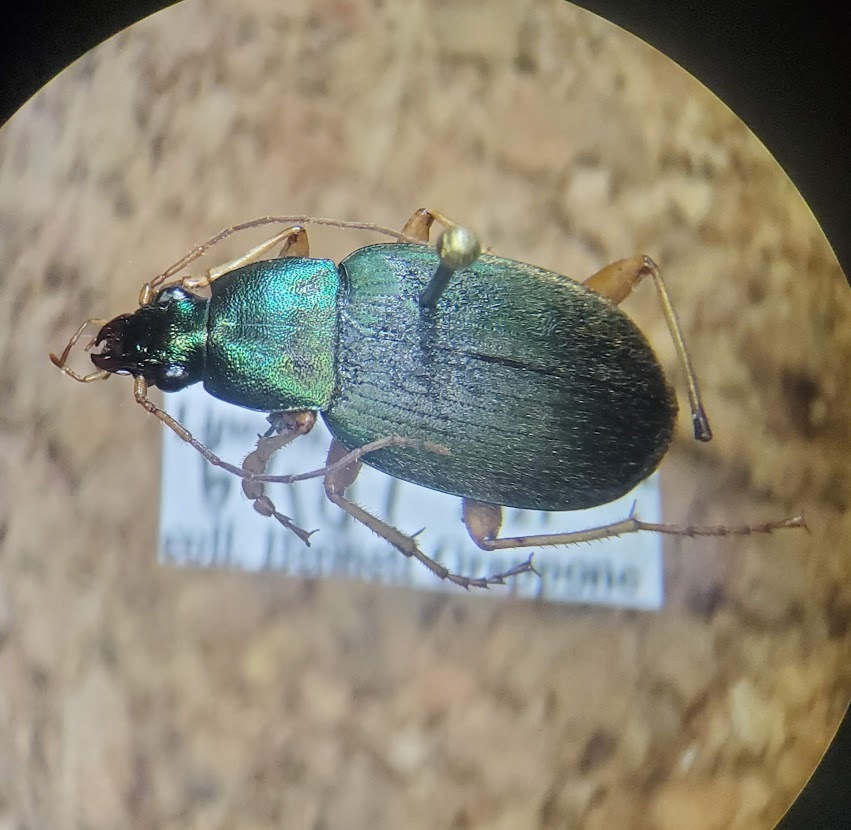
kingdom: Animalia
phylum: Arthropoda
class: Insecta
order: Coleoptera
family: Carabidae
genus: Chlaenius
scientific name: Chlaenius sericeus
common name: Green pubescent ground beetle
